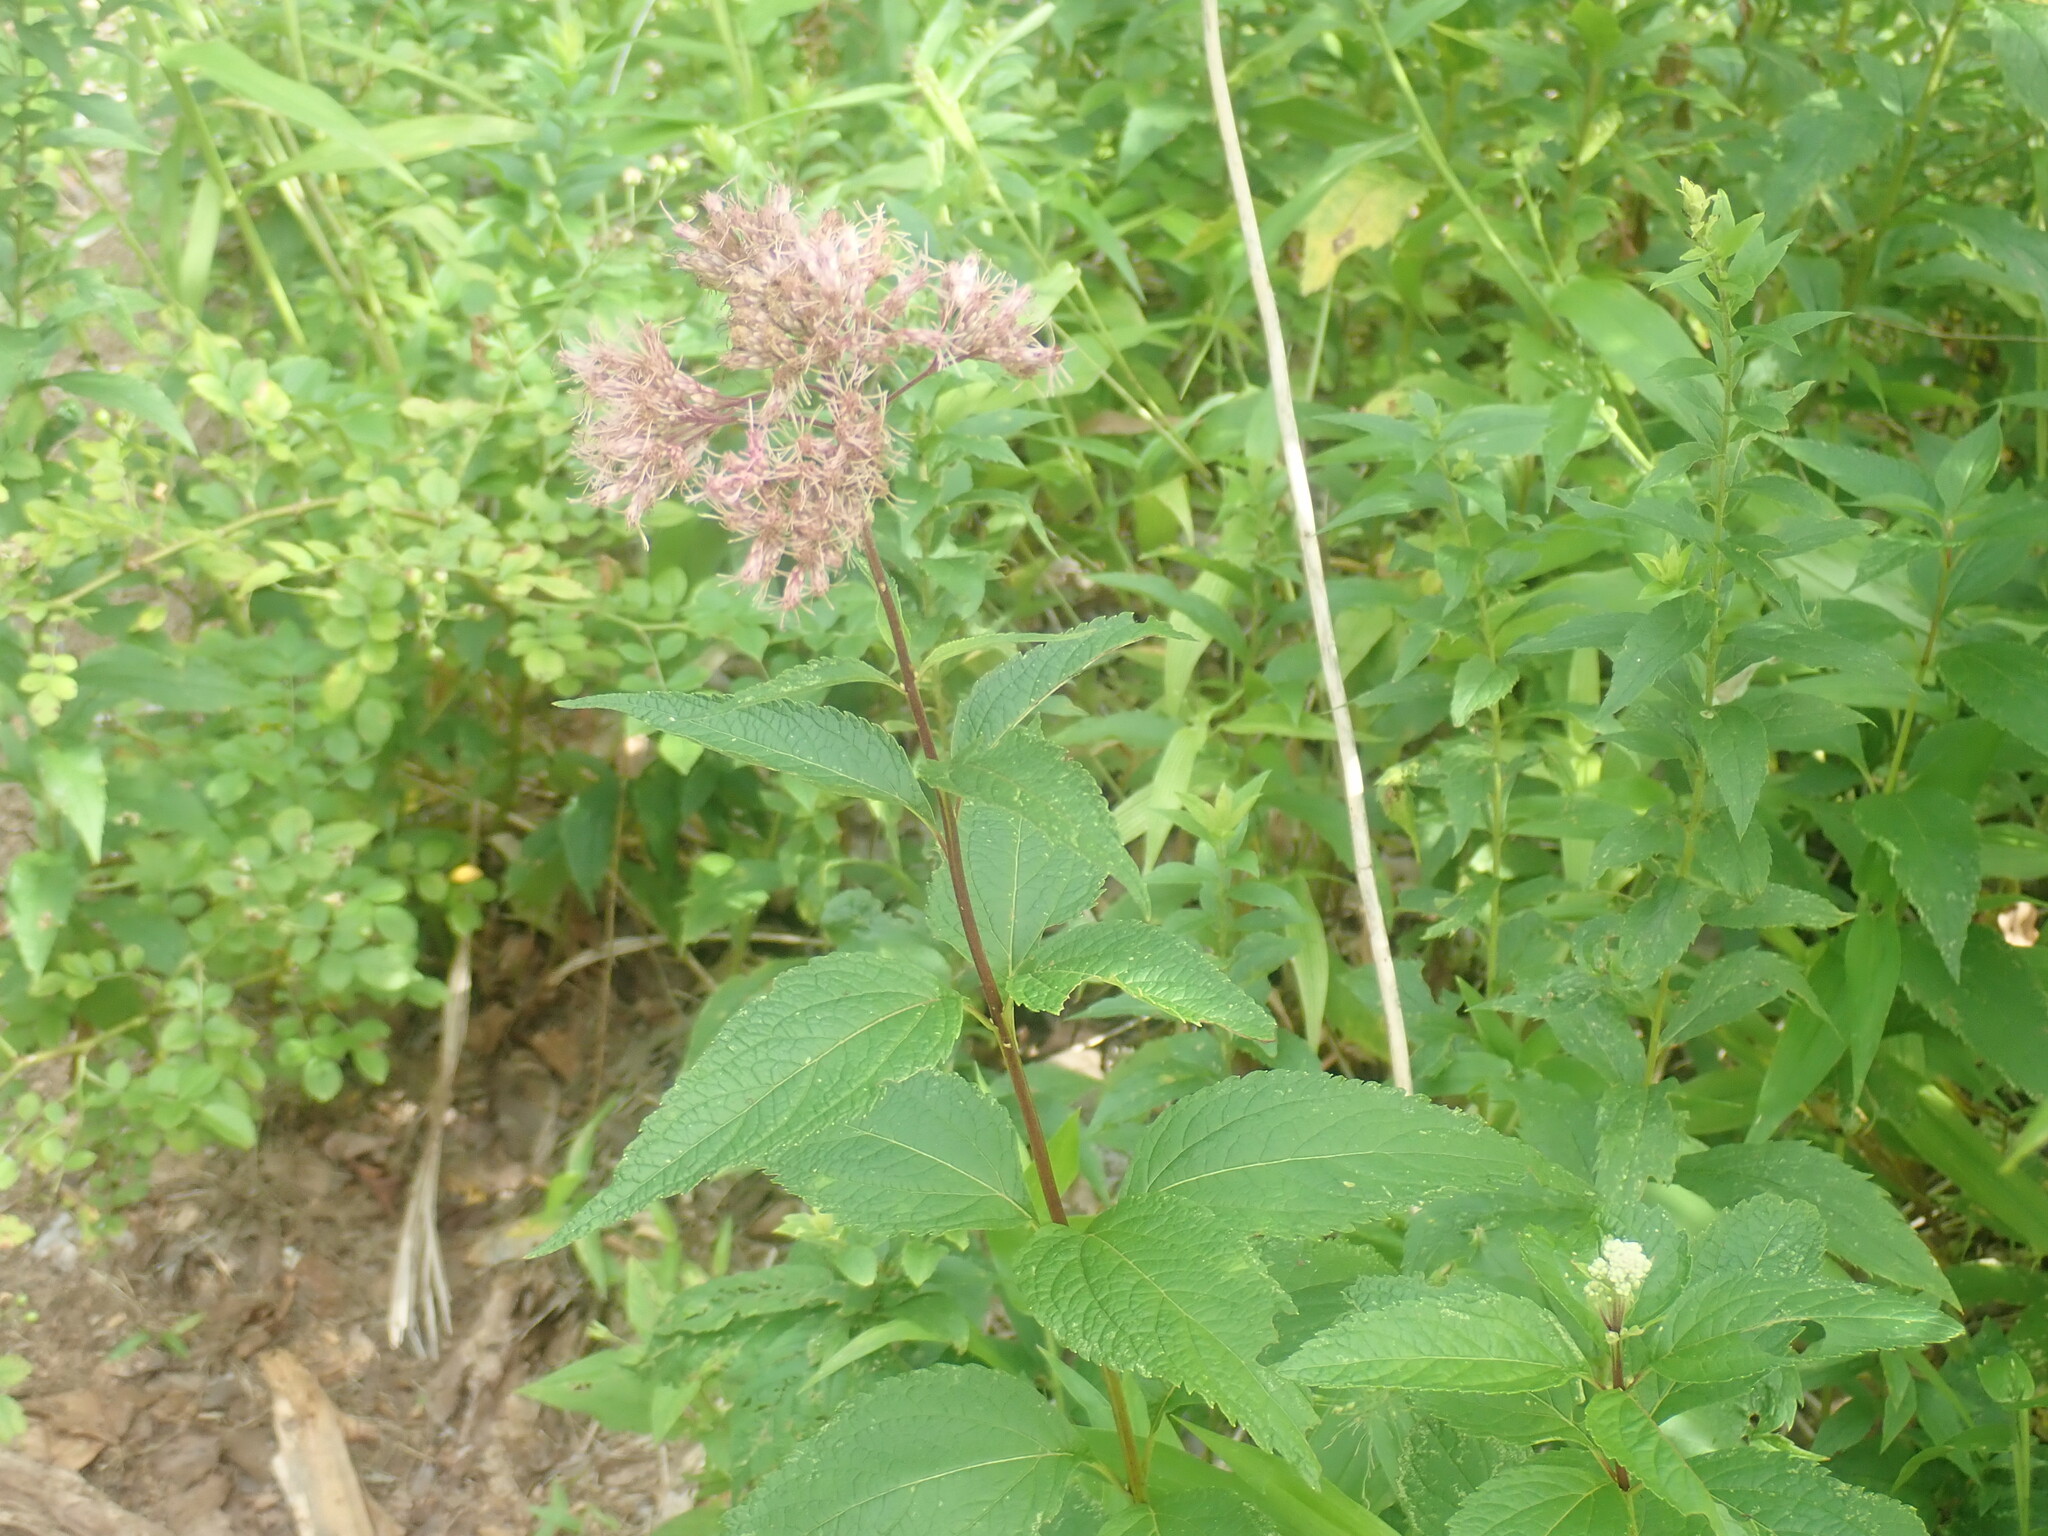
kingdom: Plantae
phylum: Tracheophyta
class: Magnoliopsida
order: Asterales
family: Asteraceae
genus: Eutrochium
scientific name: Eutrochium
